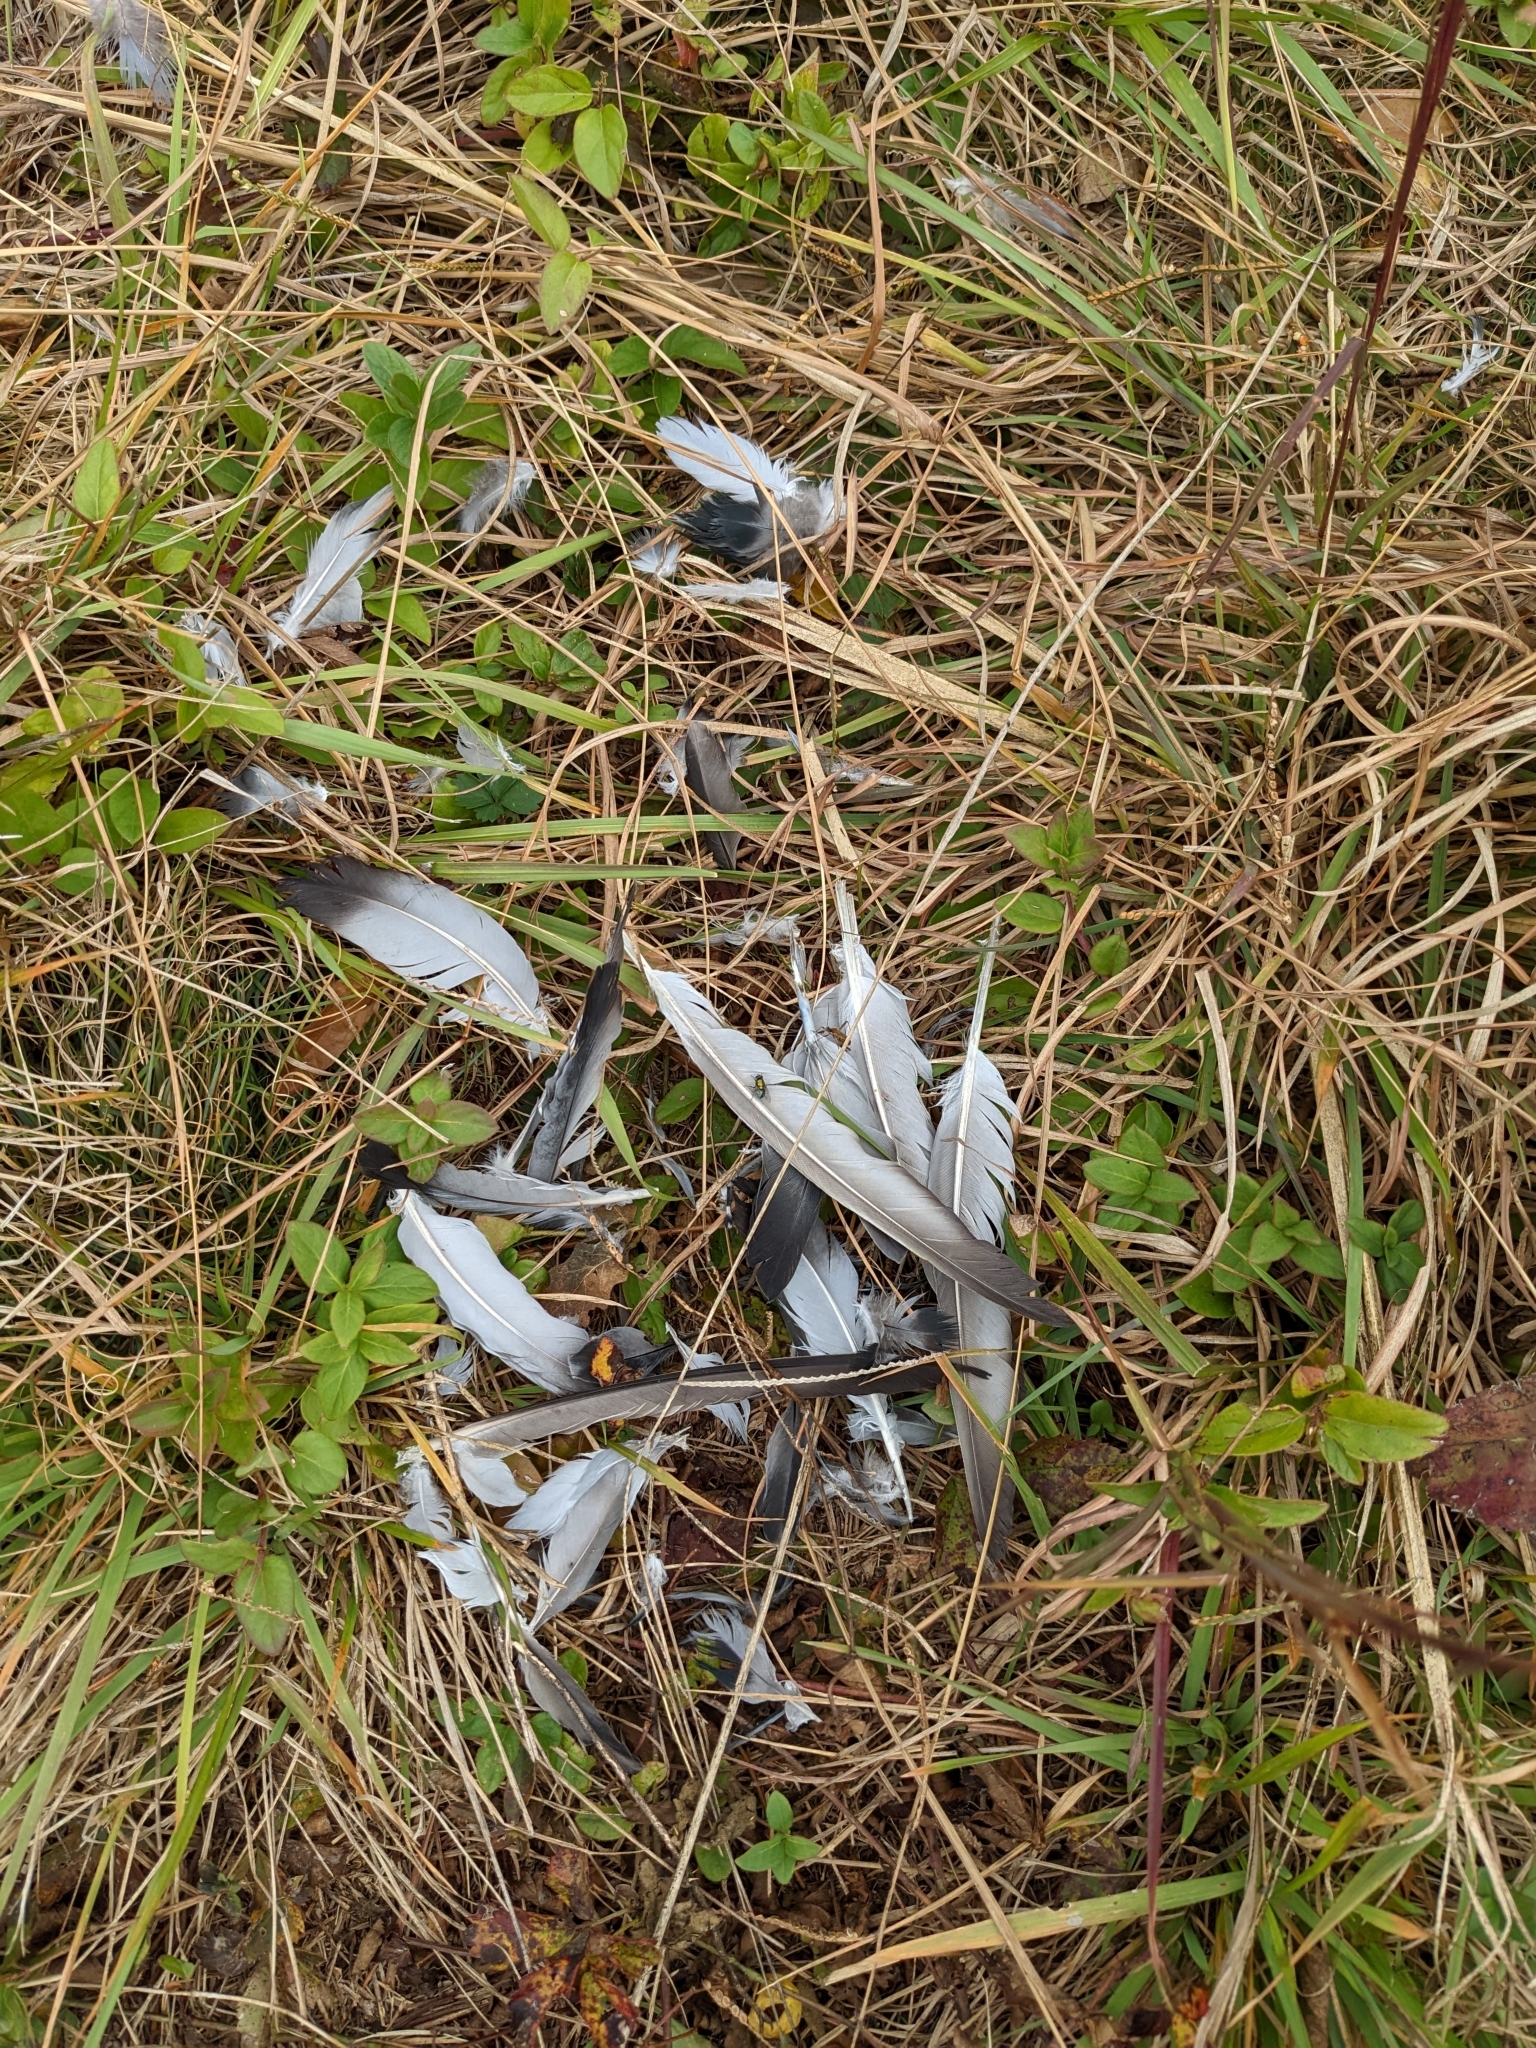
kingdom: Animalia
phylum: Chordata
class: Aves
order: Columbiformes
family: Columbidae
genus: Columba
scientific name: Columba livia
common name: Rock pigeon
